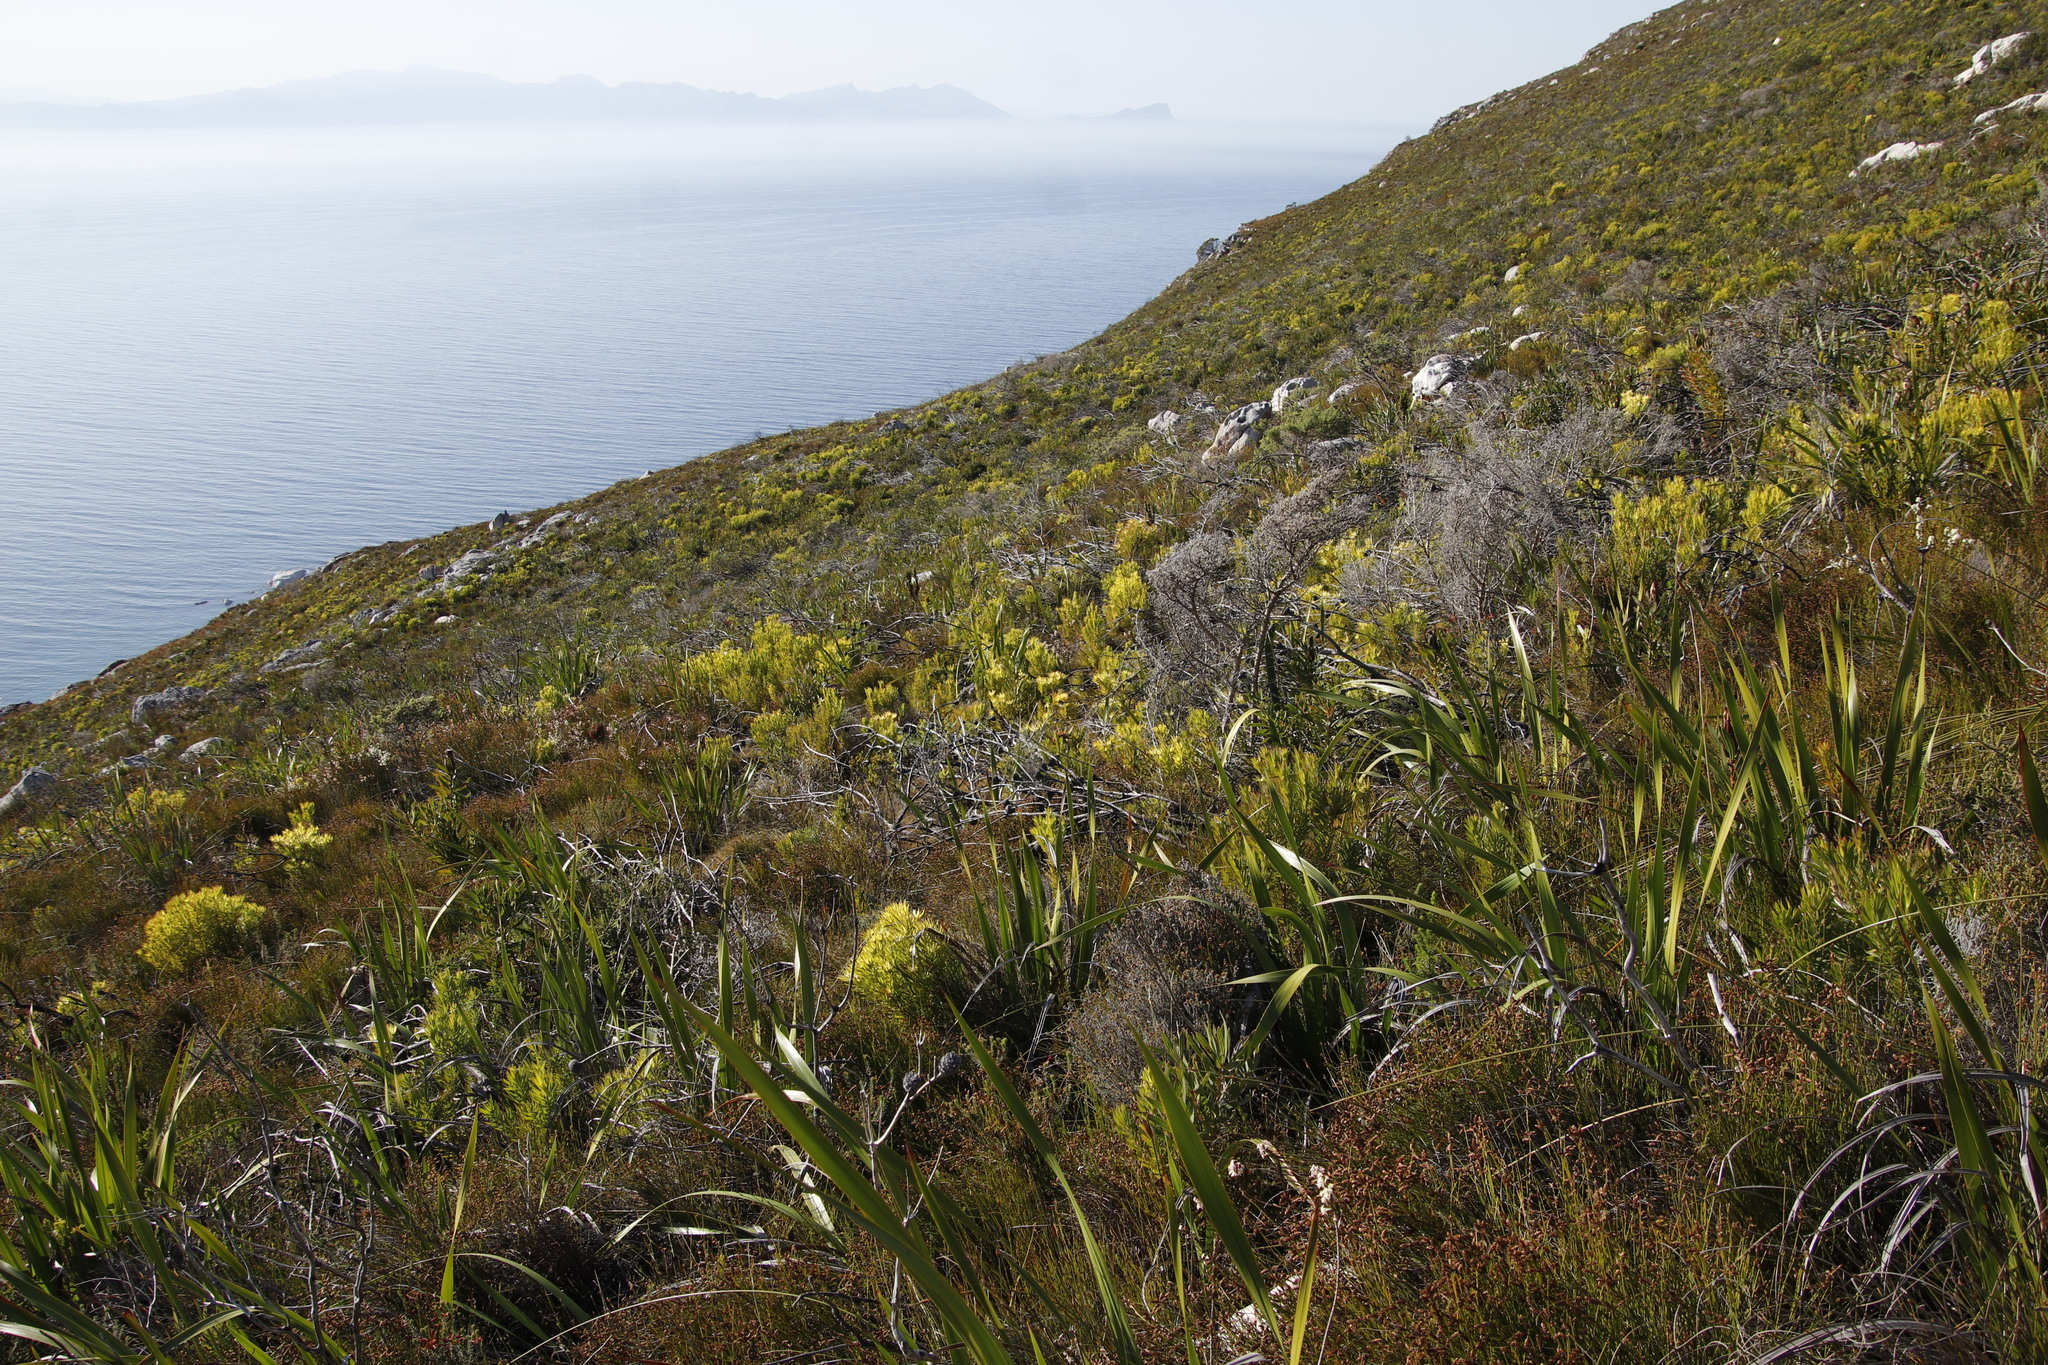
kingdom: Plantae
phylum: Tracheophyta
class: Magnoliopsida
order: Proteales
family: Proteaceae
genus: Leucadendron
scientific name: Leucadendron xanthoconus
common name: Sickle-leaf conebush
